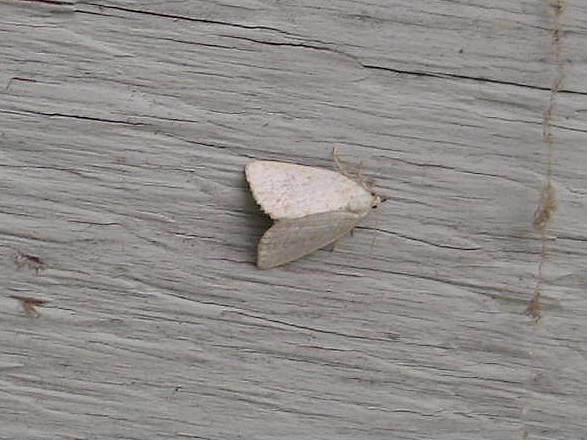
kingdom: Animalia
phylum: Arthropoda
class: Insecta
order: Lepidoptera
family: Noctuidae
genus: Protodeltote
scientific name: Protodeltote albidula
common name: Pale glyph
